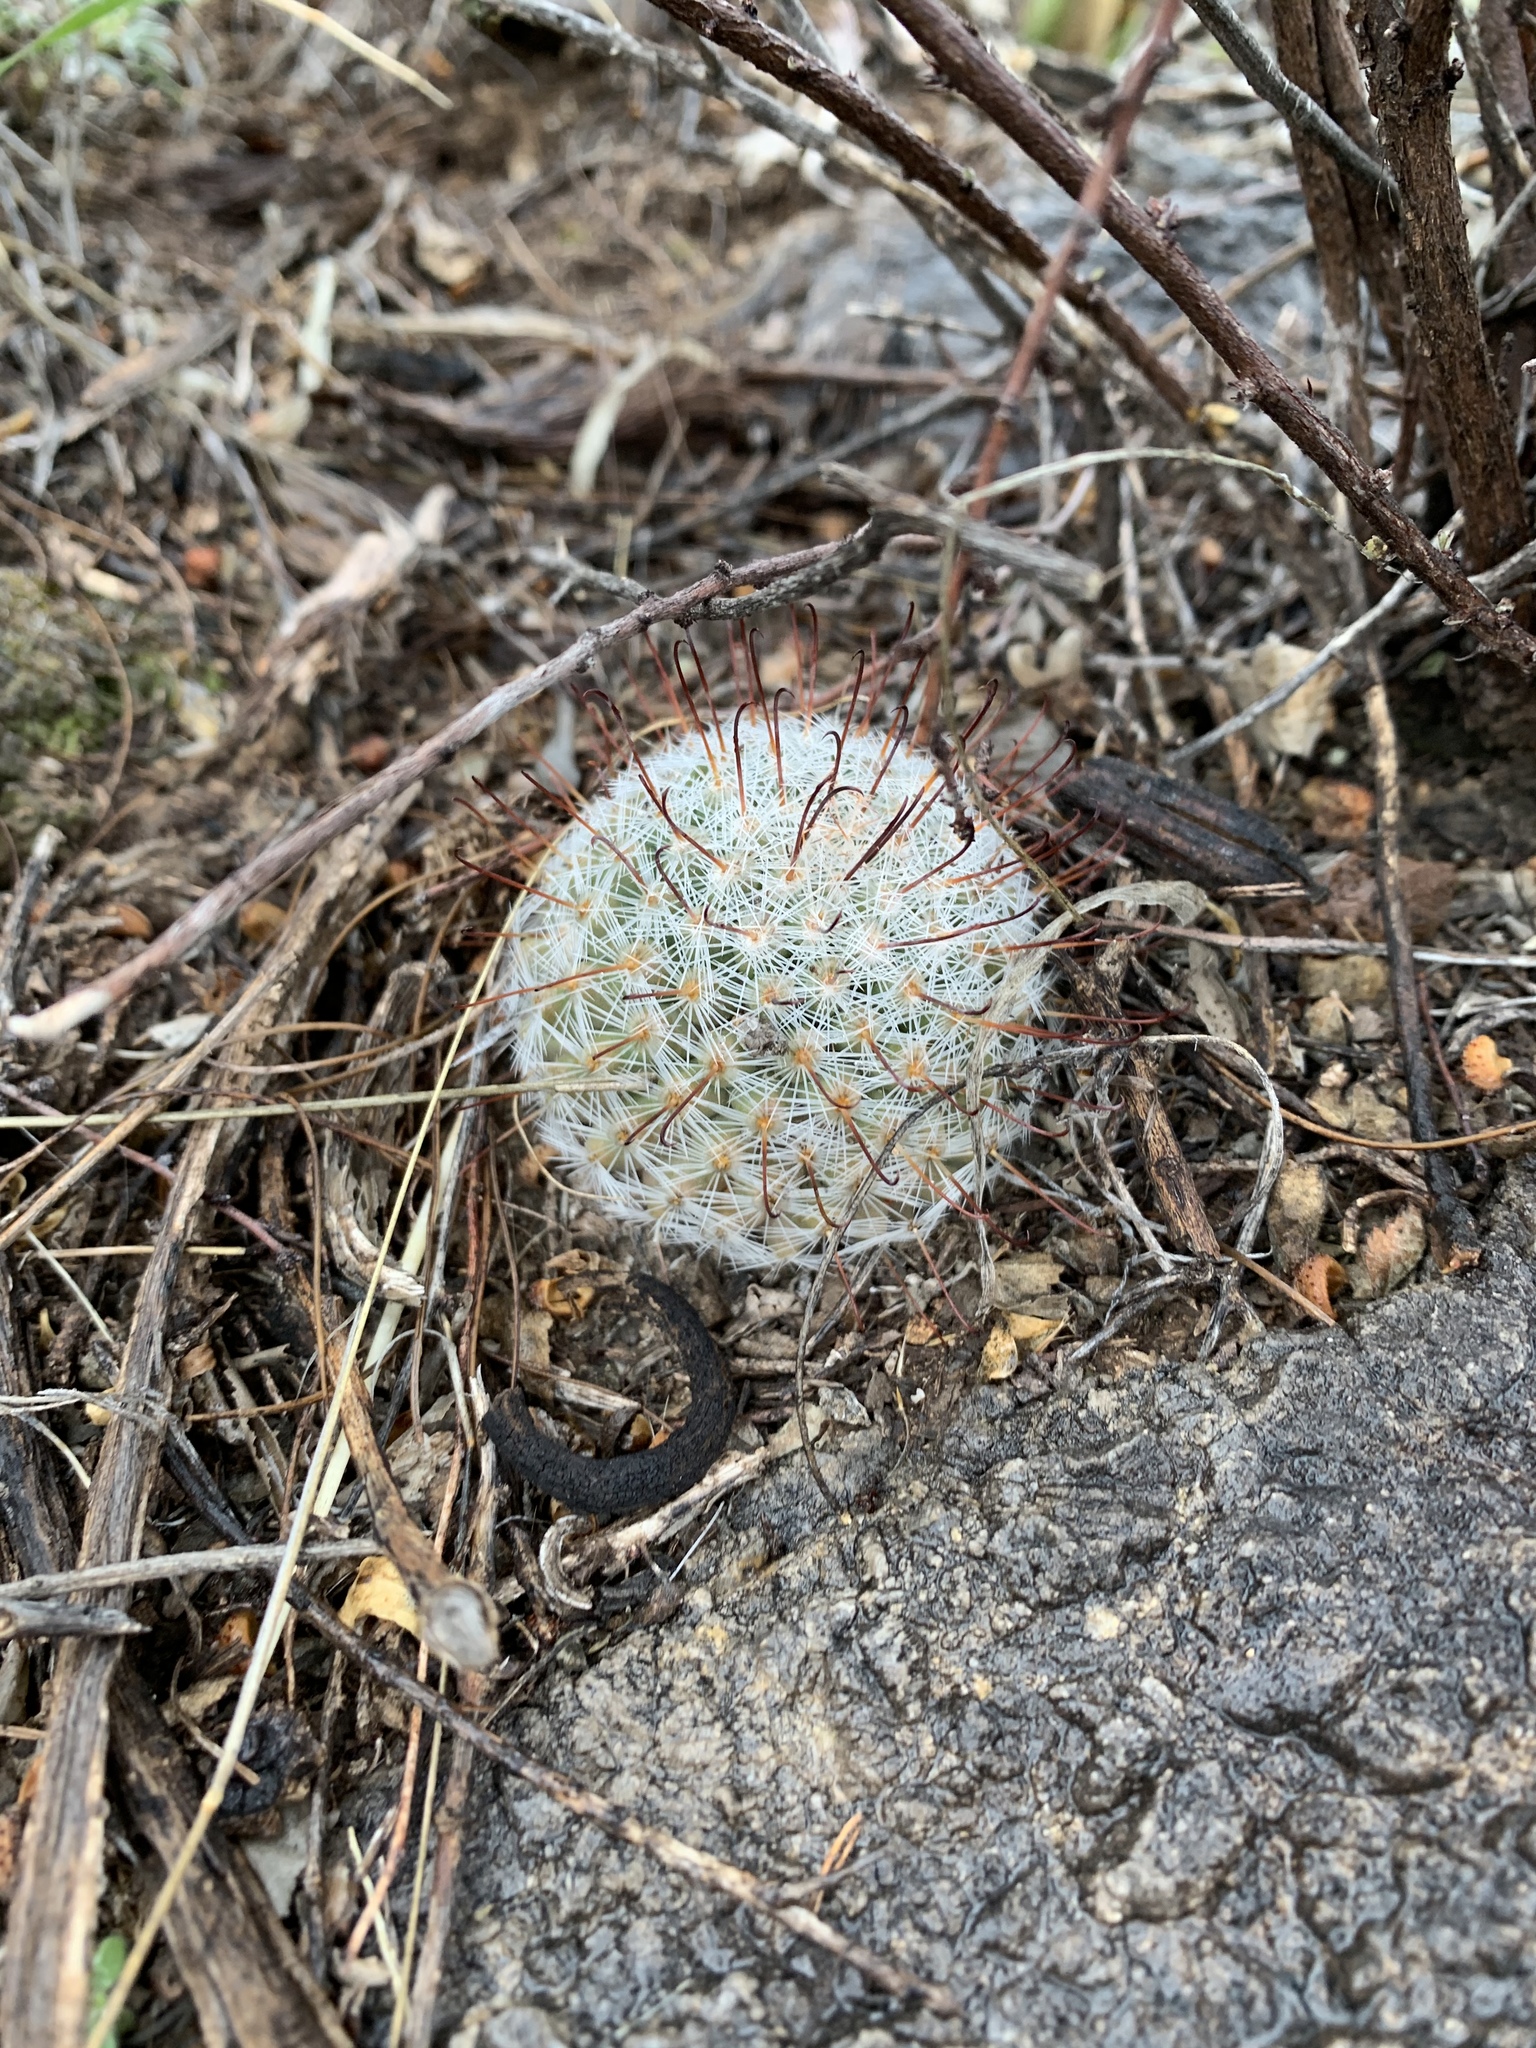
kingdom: Plantae
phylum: Tracheophyta
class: Magnoliopsida
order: Caryophyllales
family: Cactaceae
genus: Cochemiea
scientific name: Cochemiea grahamii
